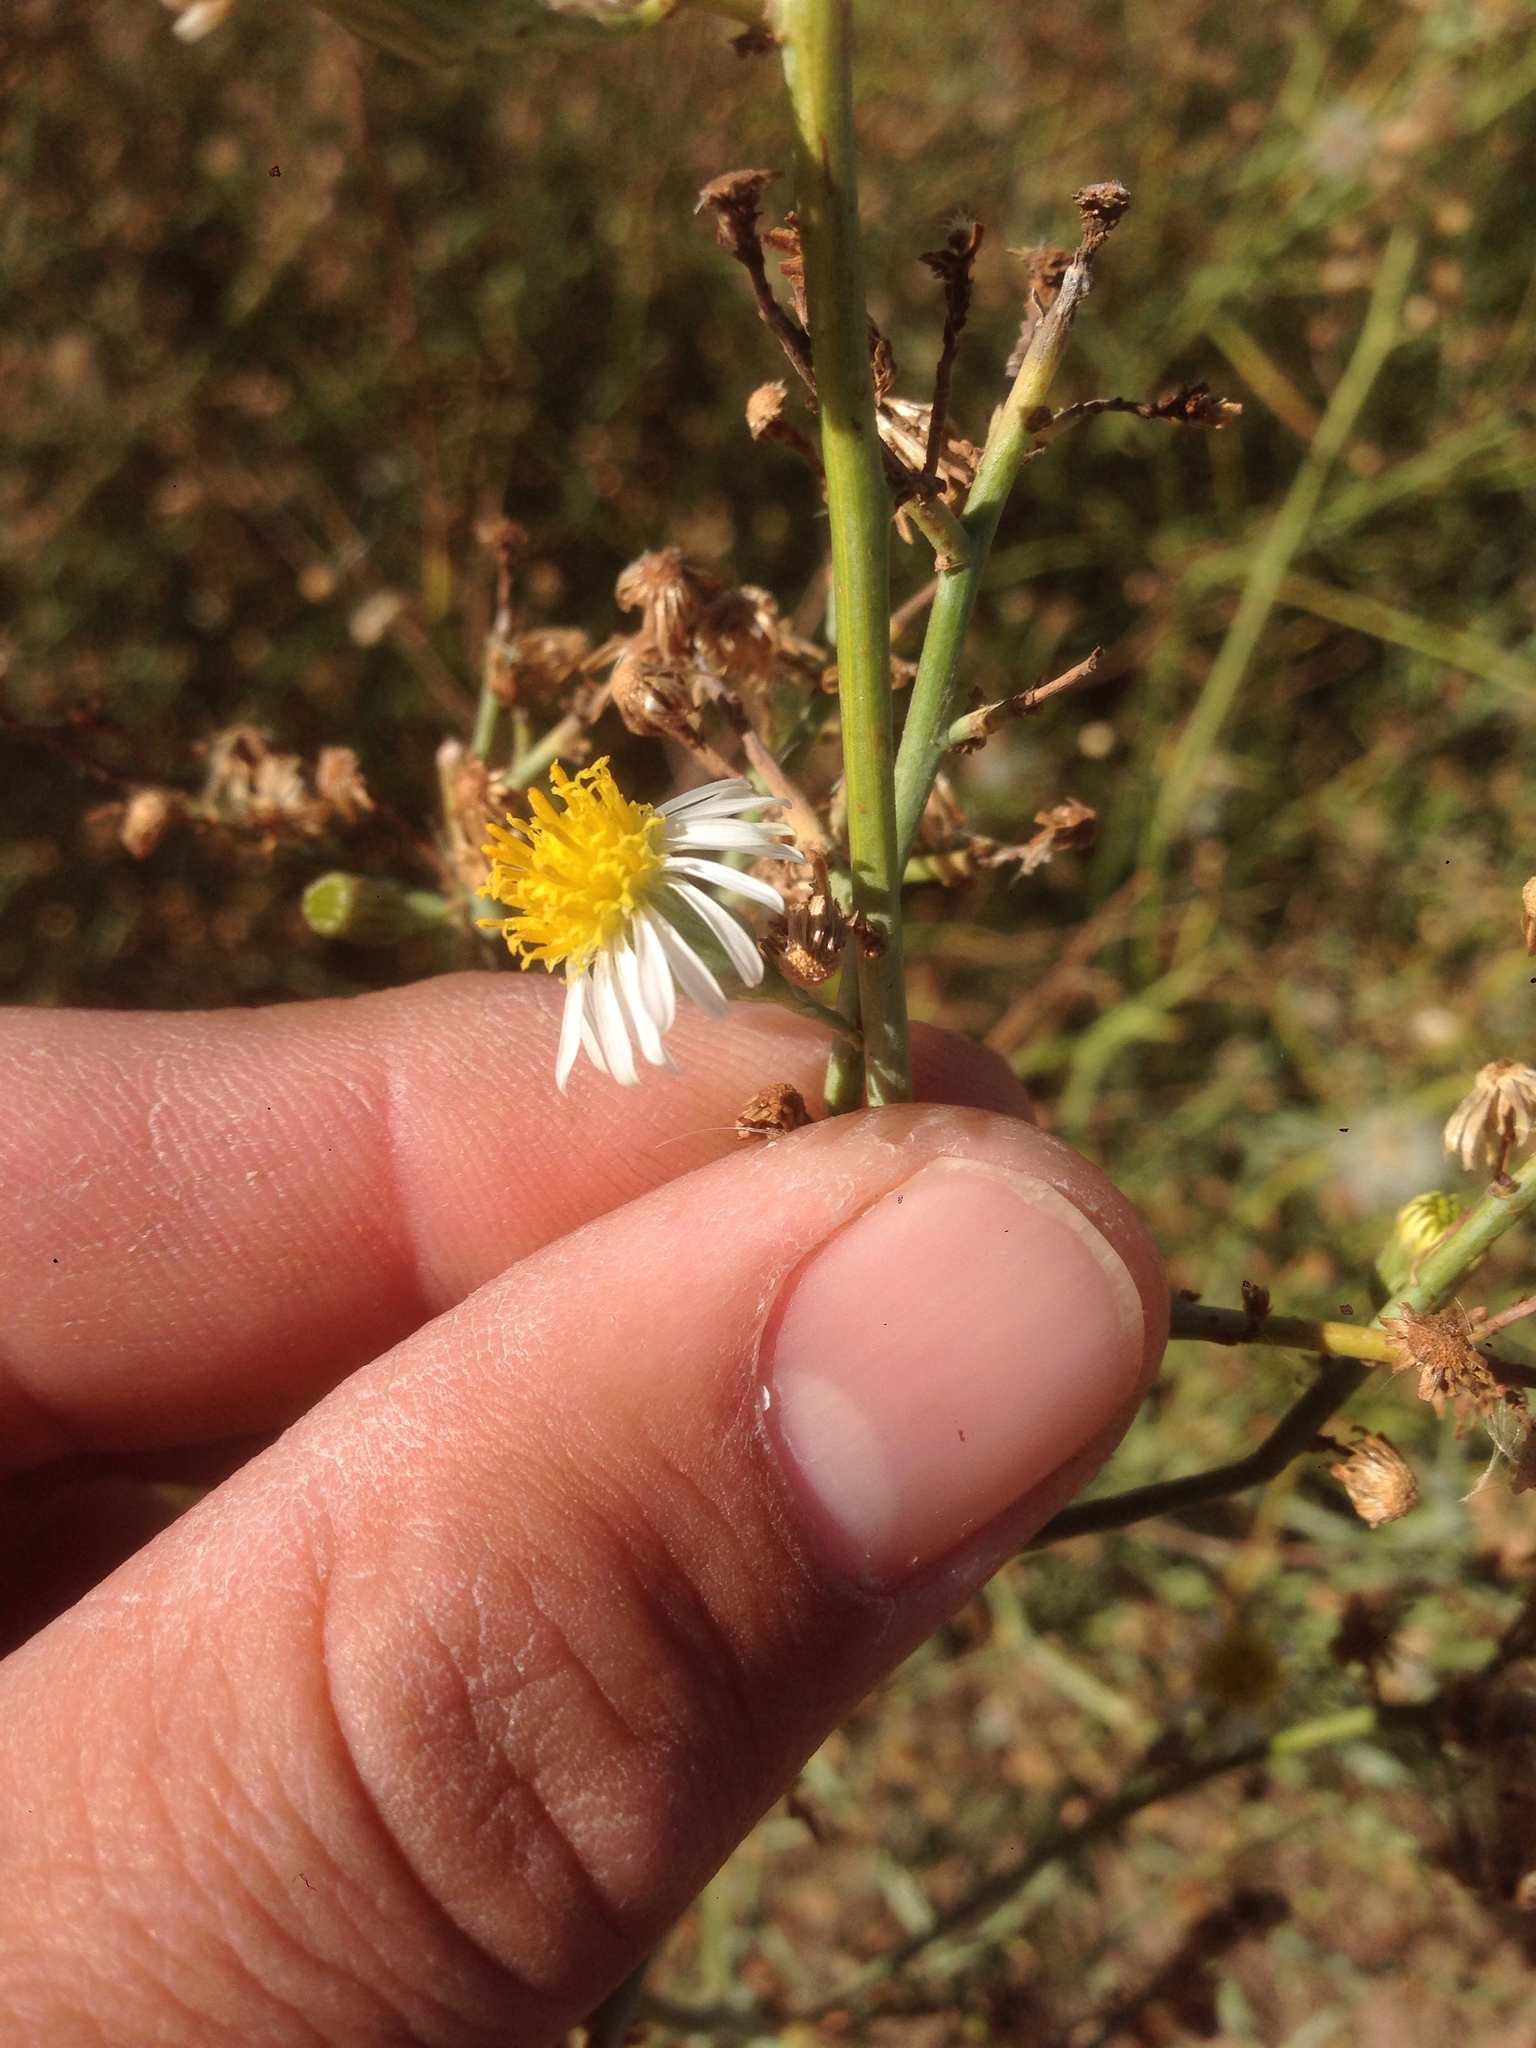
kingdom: Plantae
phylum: Tracheophyta
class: Magnoliopsida
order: Asterales
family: Asteraceae
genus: Chloracantha
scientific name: Chloracantha spinosa
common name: Mexican devilweed
